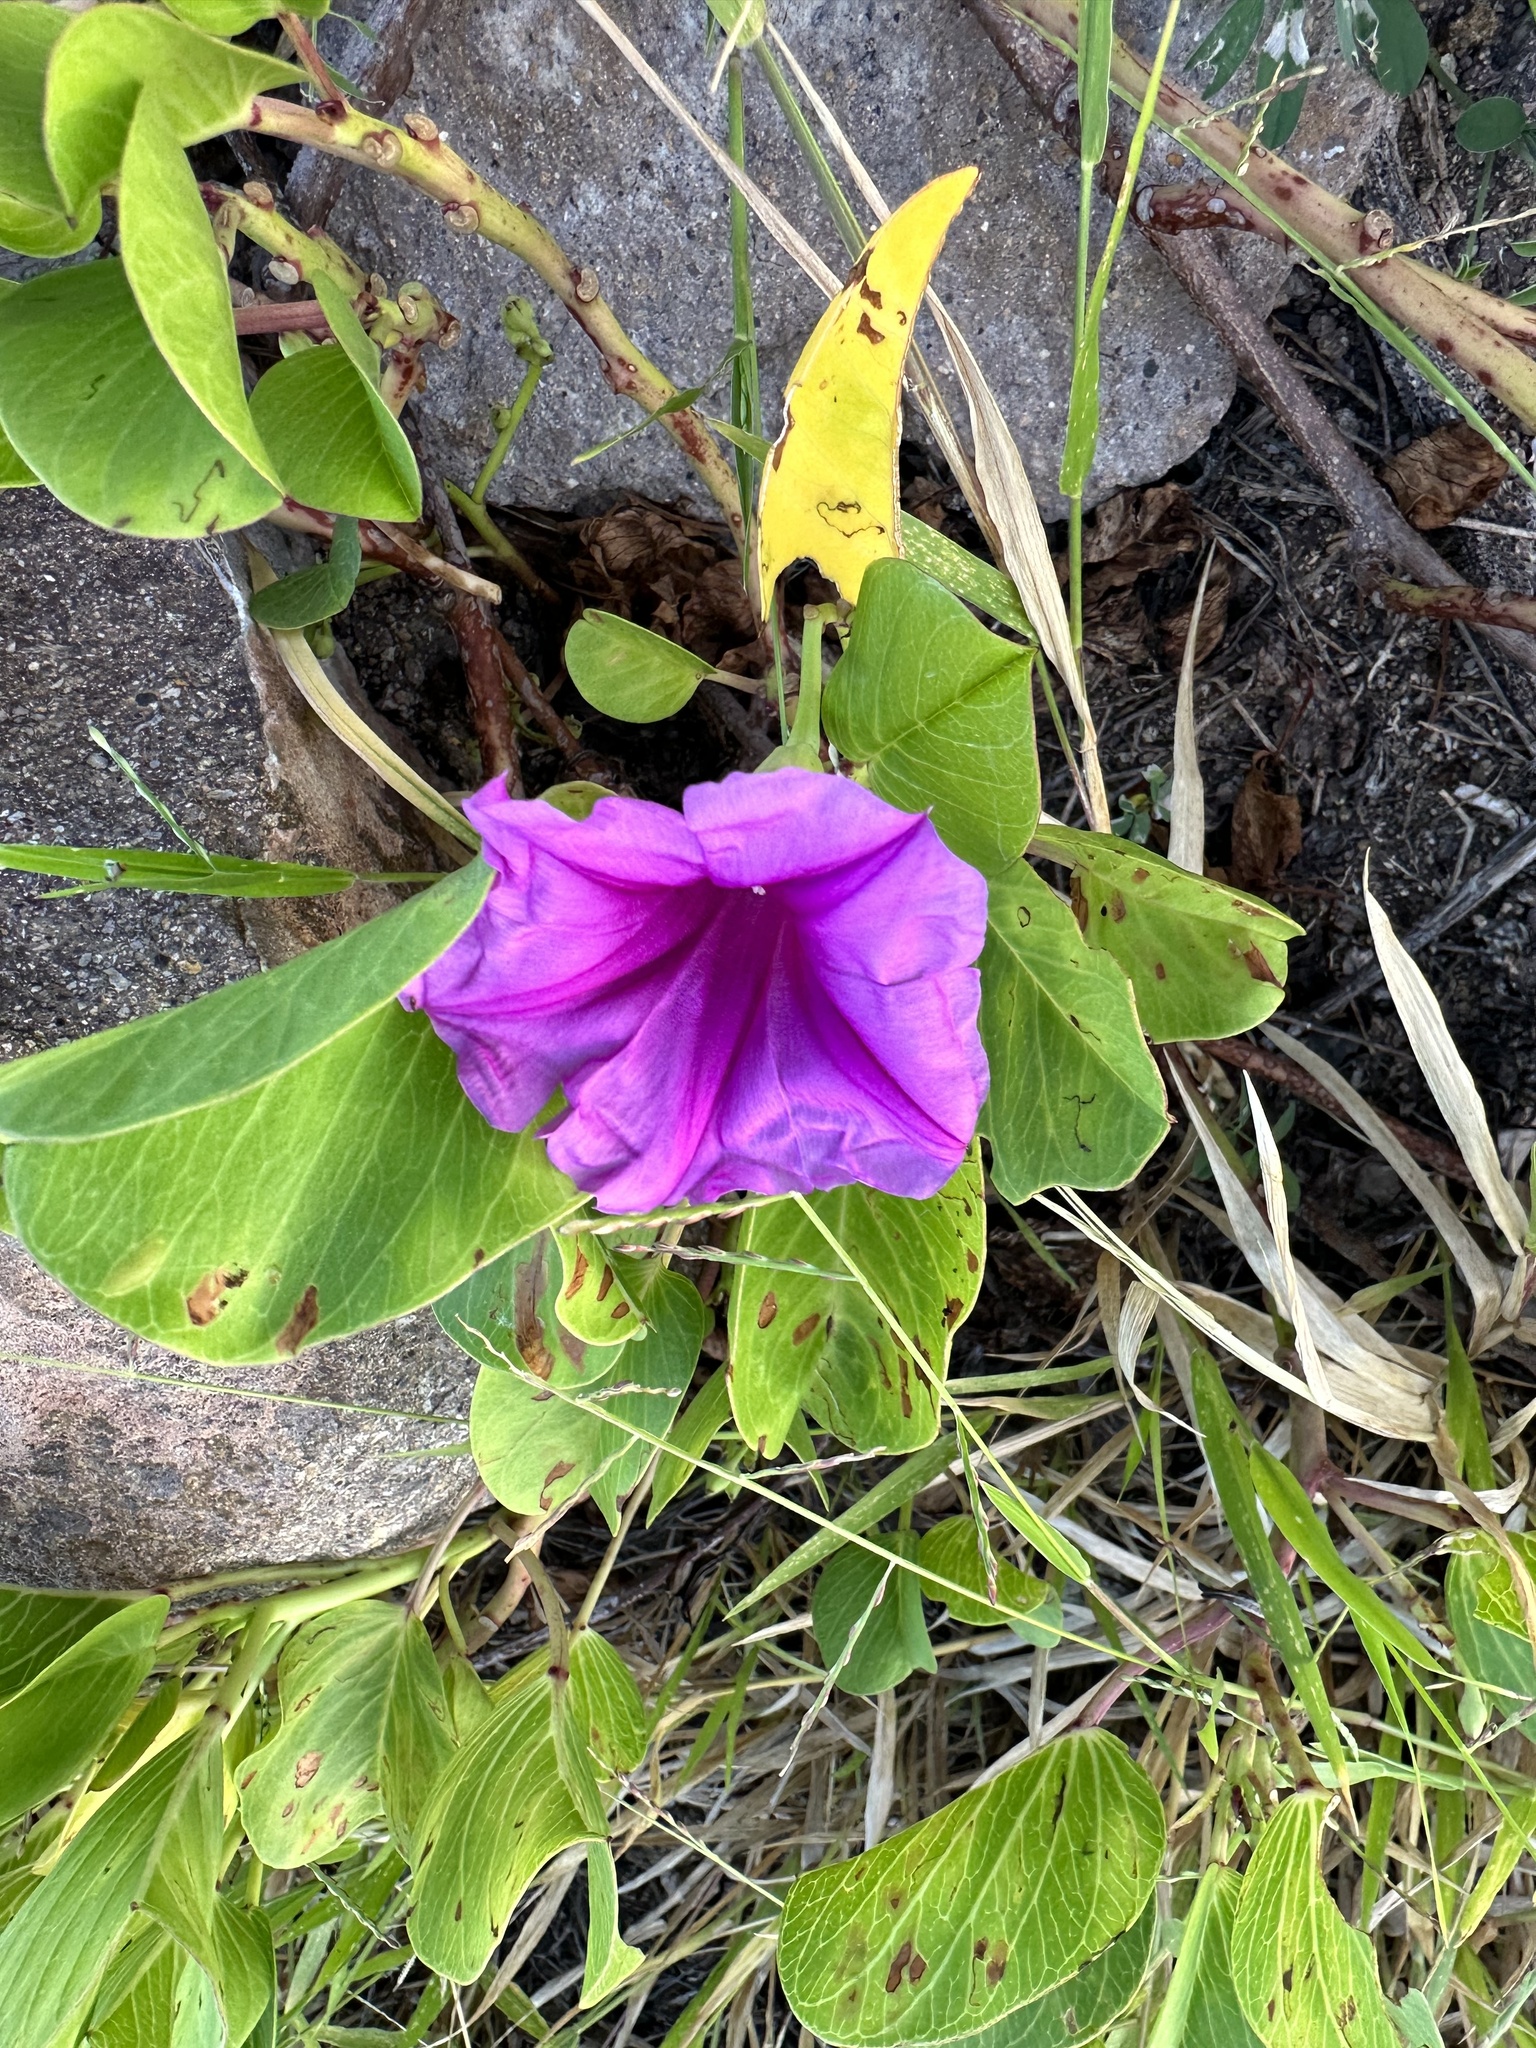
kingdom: Plantae
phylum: Tracheophyta
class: Magnoliopsida
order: Solanales
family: Convolvulaceae
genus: Ipomoea
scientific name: Ipomoea pes-caprae
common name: Beach morning glory
